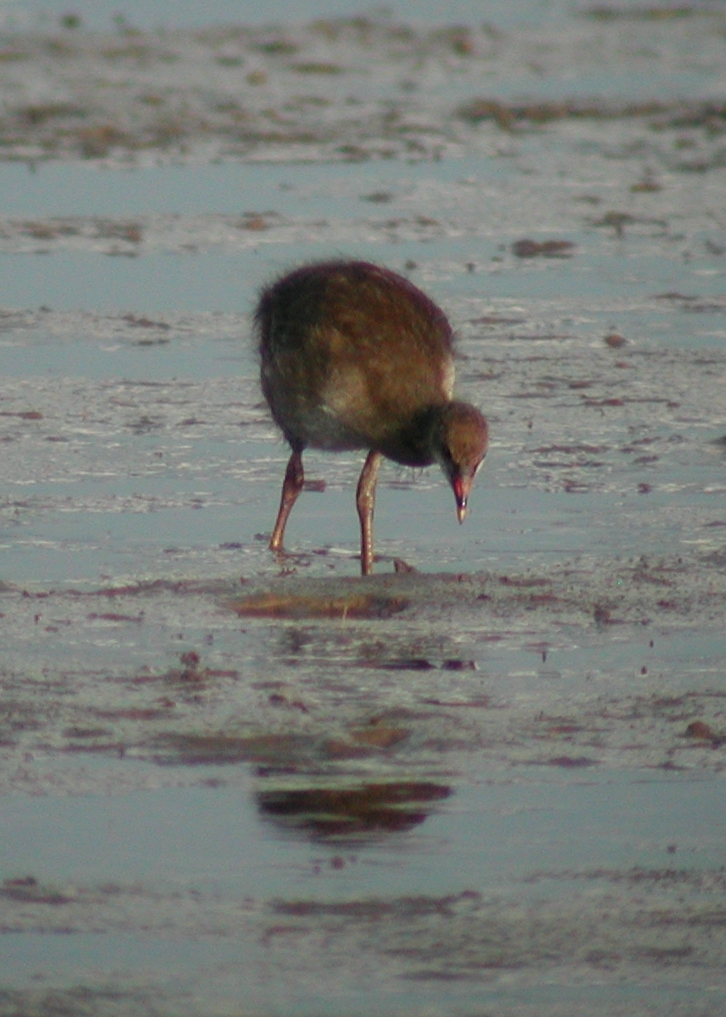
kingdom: Animalia
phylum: Chordata
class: Aves
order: Gruiformes
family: Rallidae
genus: Gallinula
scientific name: Gallinula chloropus
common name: Common moorhen
